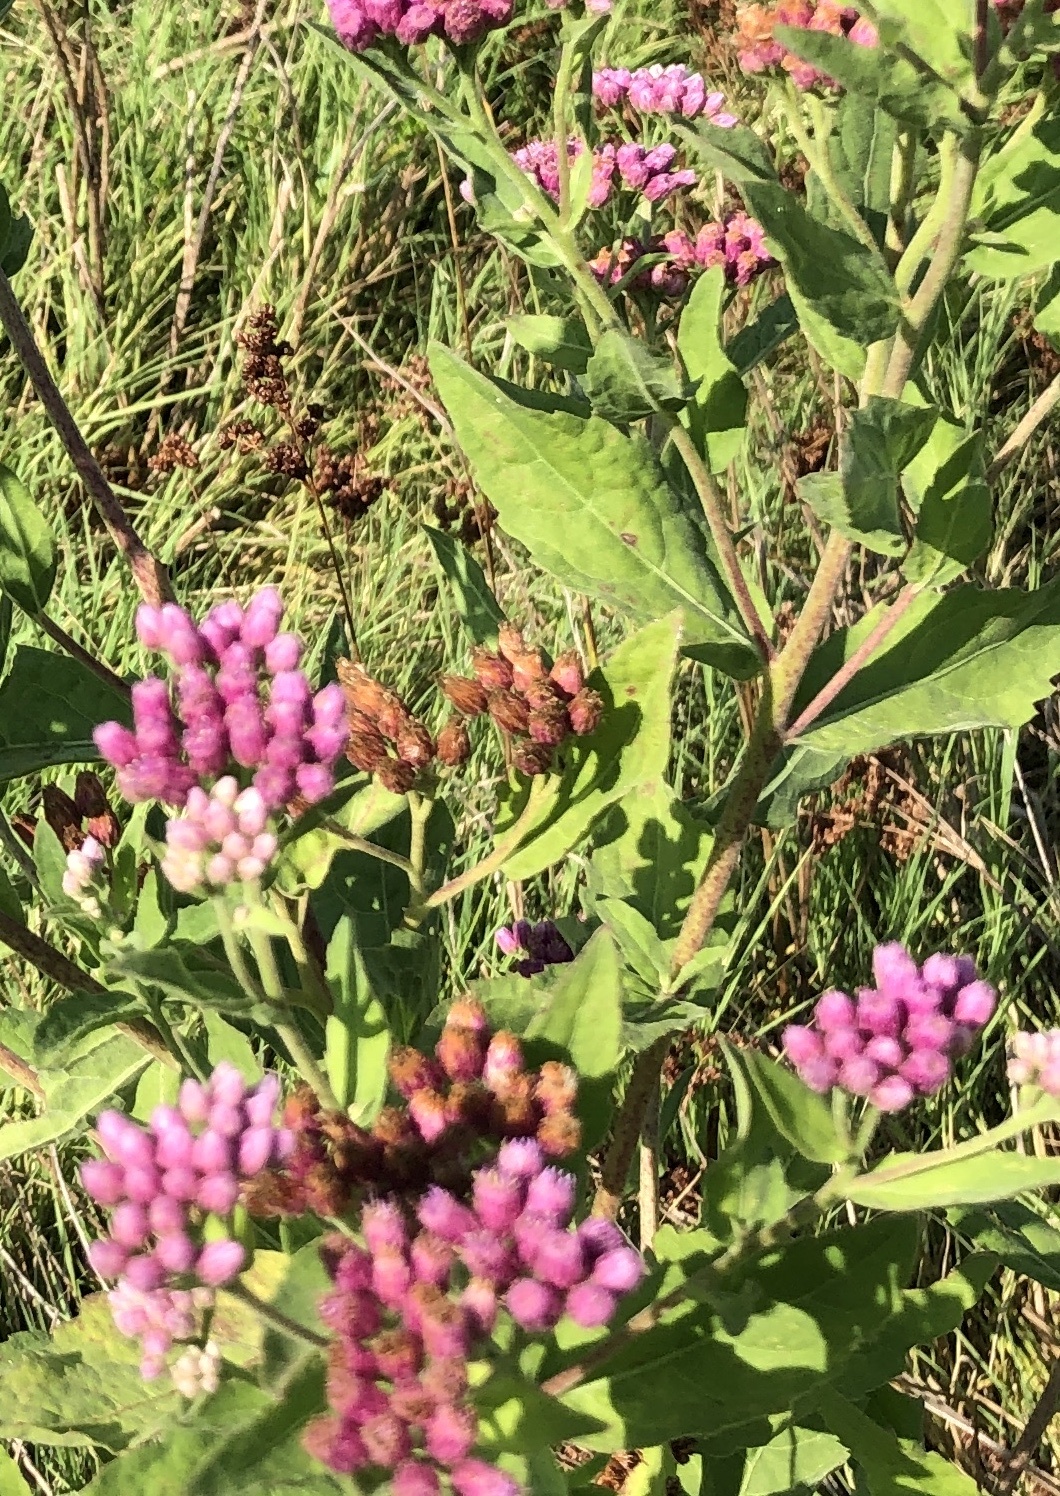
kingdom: Plantae
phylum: Tracheophyta
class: Magnoliopsida
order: Asterales
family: Asteraceae
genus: Pluchea
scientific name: Pluchea odorata
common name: Saltmarsh fleabane
